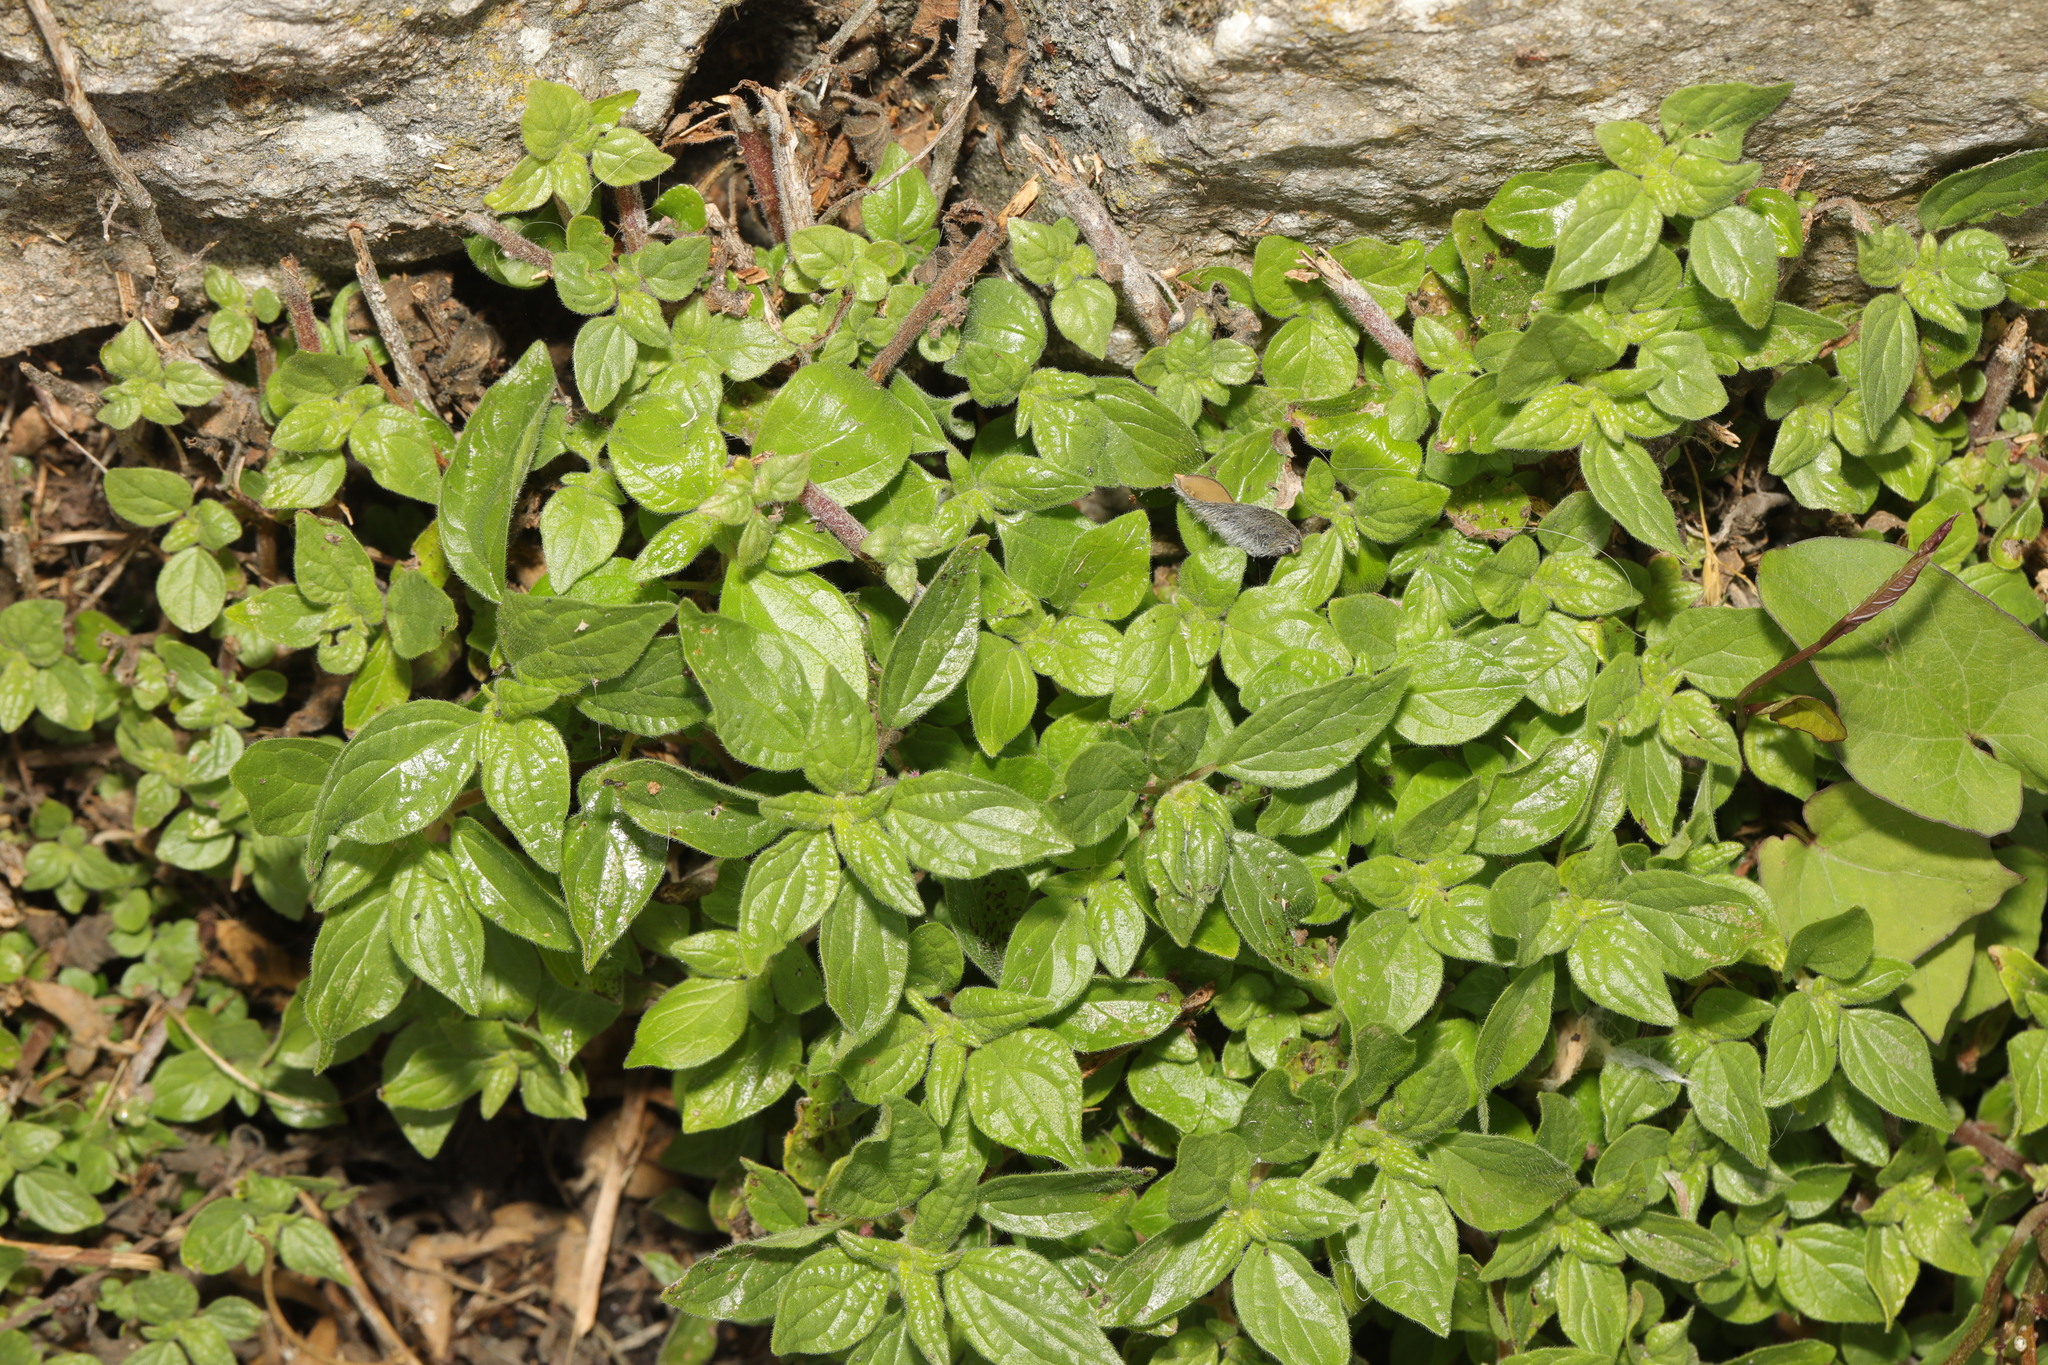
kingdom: Plantae
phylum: Tracheophyta
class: Magnoliopsida
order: Rosales
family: Urticaceae
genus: Parietaria
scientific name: Parietaria judaica
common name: Pellitory-of-the-wall
